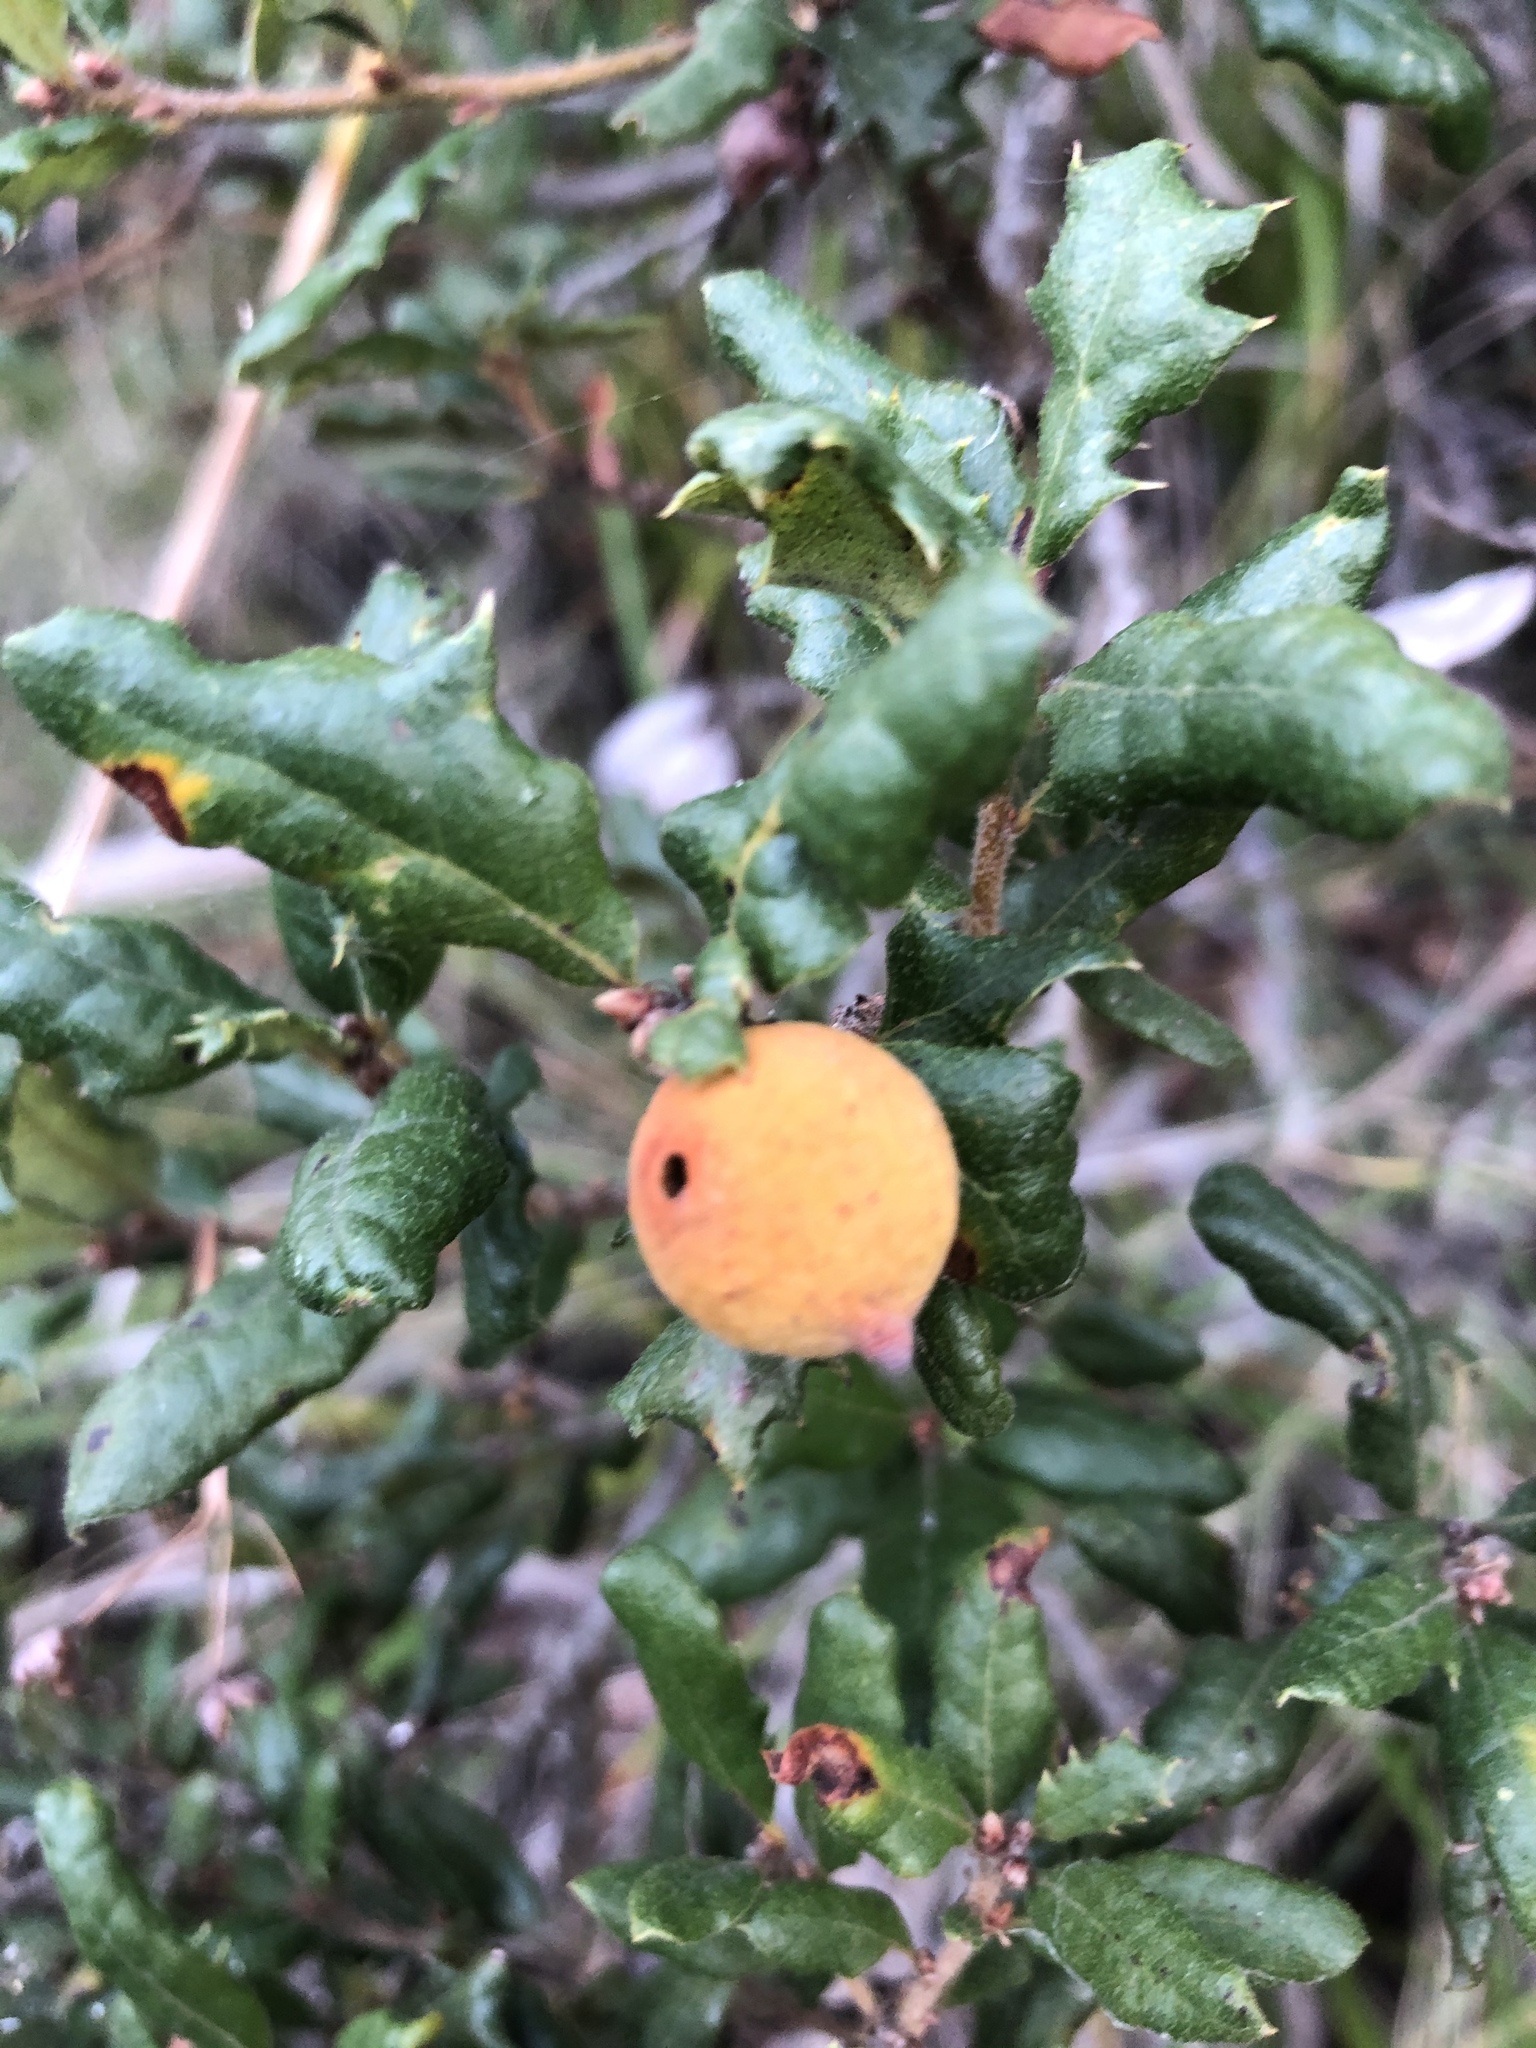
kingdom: Animalia
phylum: Arthropoda
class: Insecta
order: Hymenoptera
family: Cynipidae
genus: Burnettweldia
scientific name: Burnettweldia
